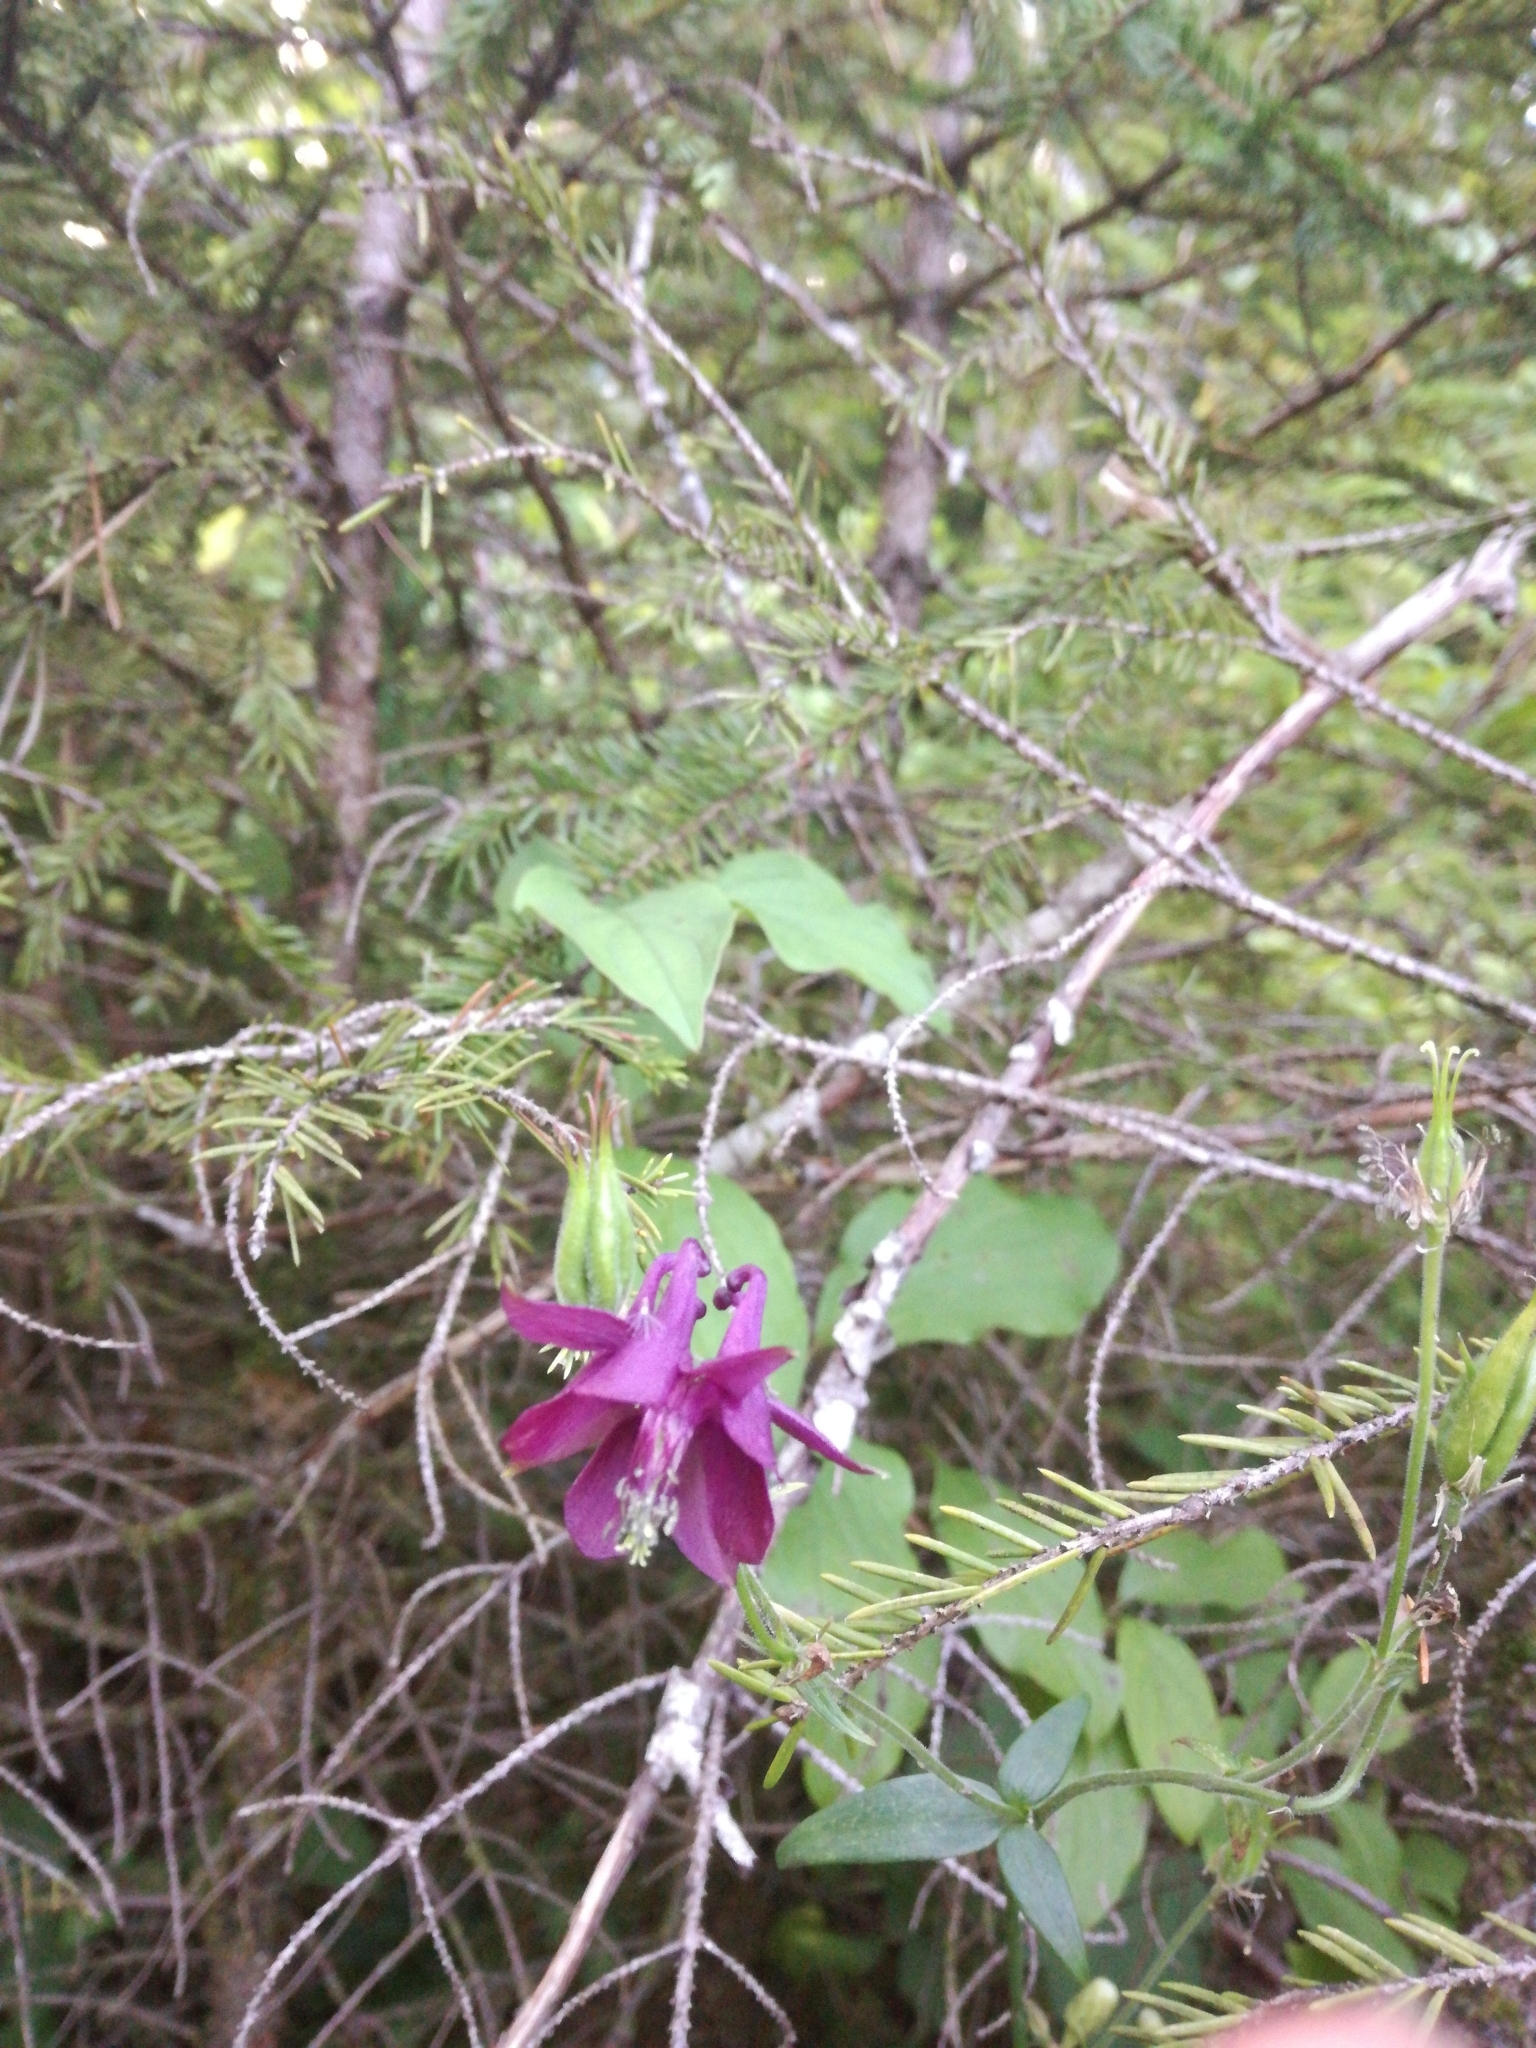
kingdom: Plantae
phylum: Tracheophyta
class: Magnoliopsida
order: Ranunculales
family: Ranunculaceae
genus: Aquilegia
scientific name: Aquilegia atrata
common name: Dark columbine
